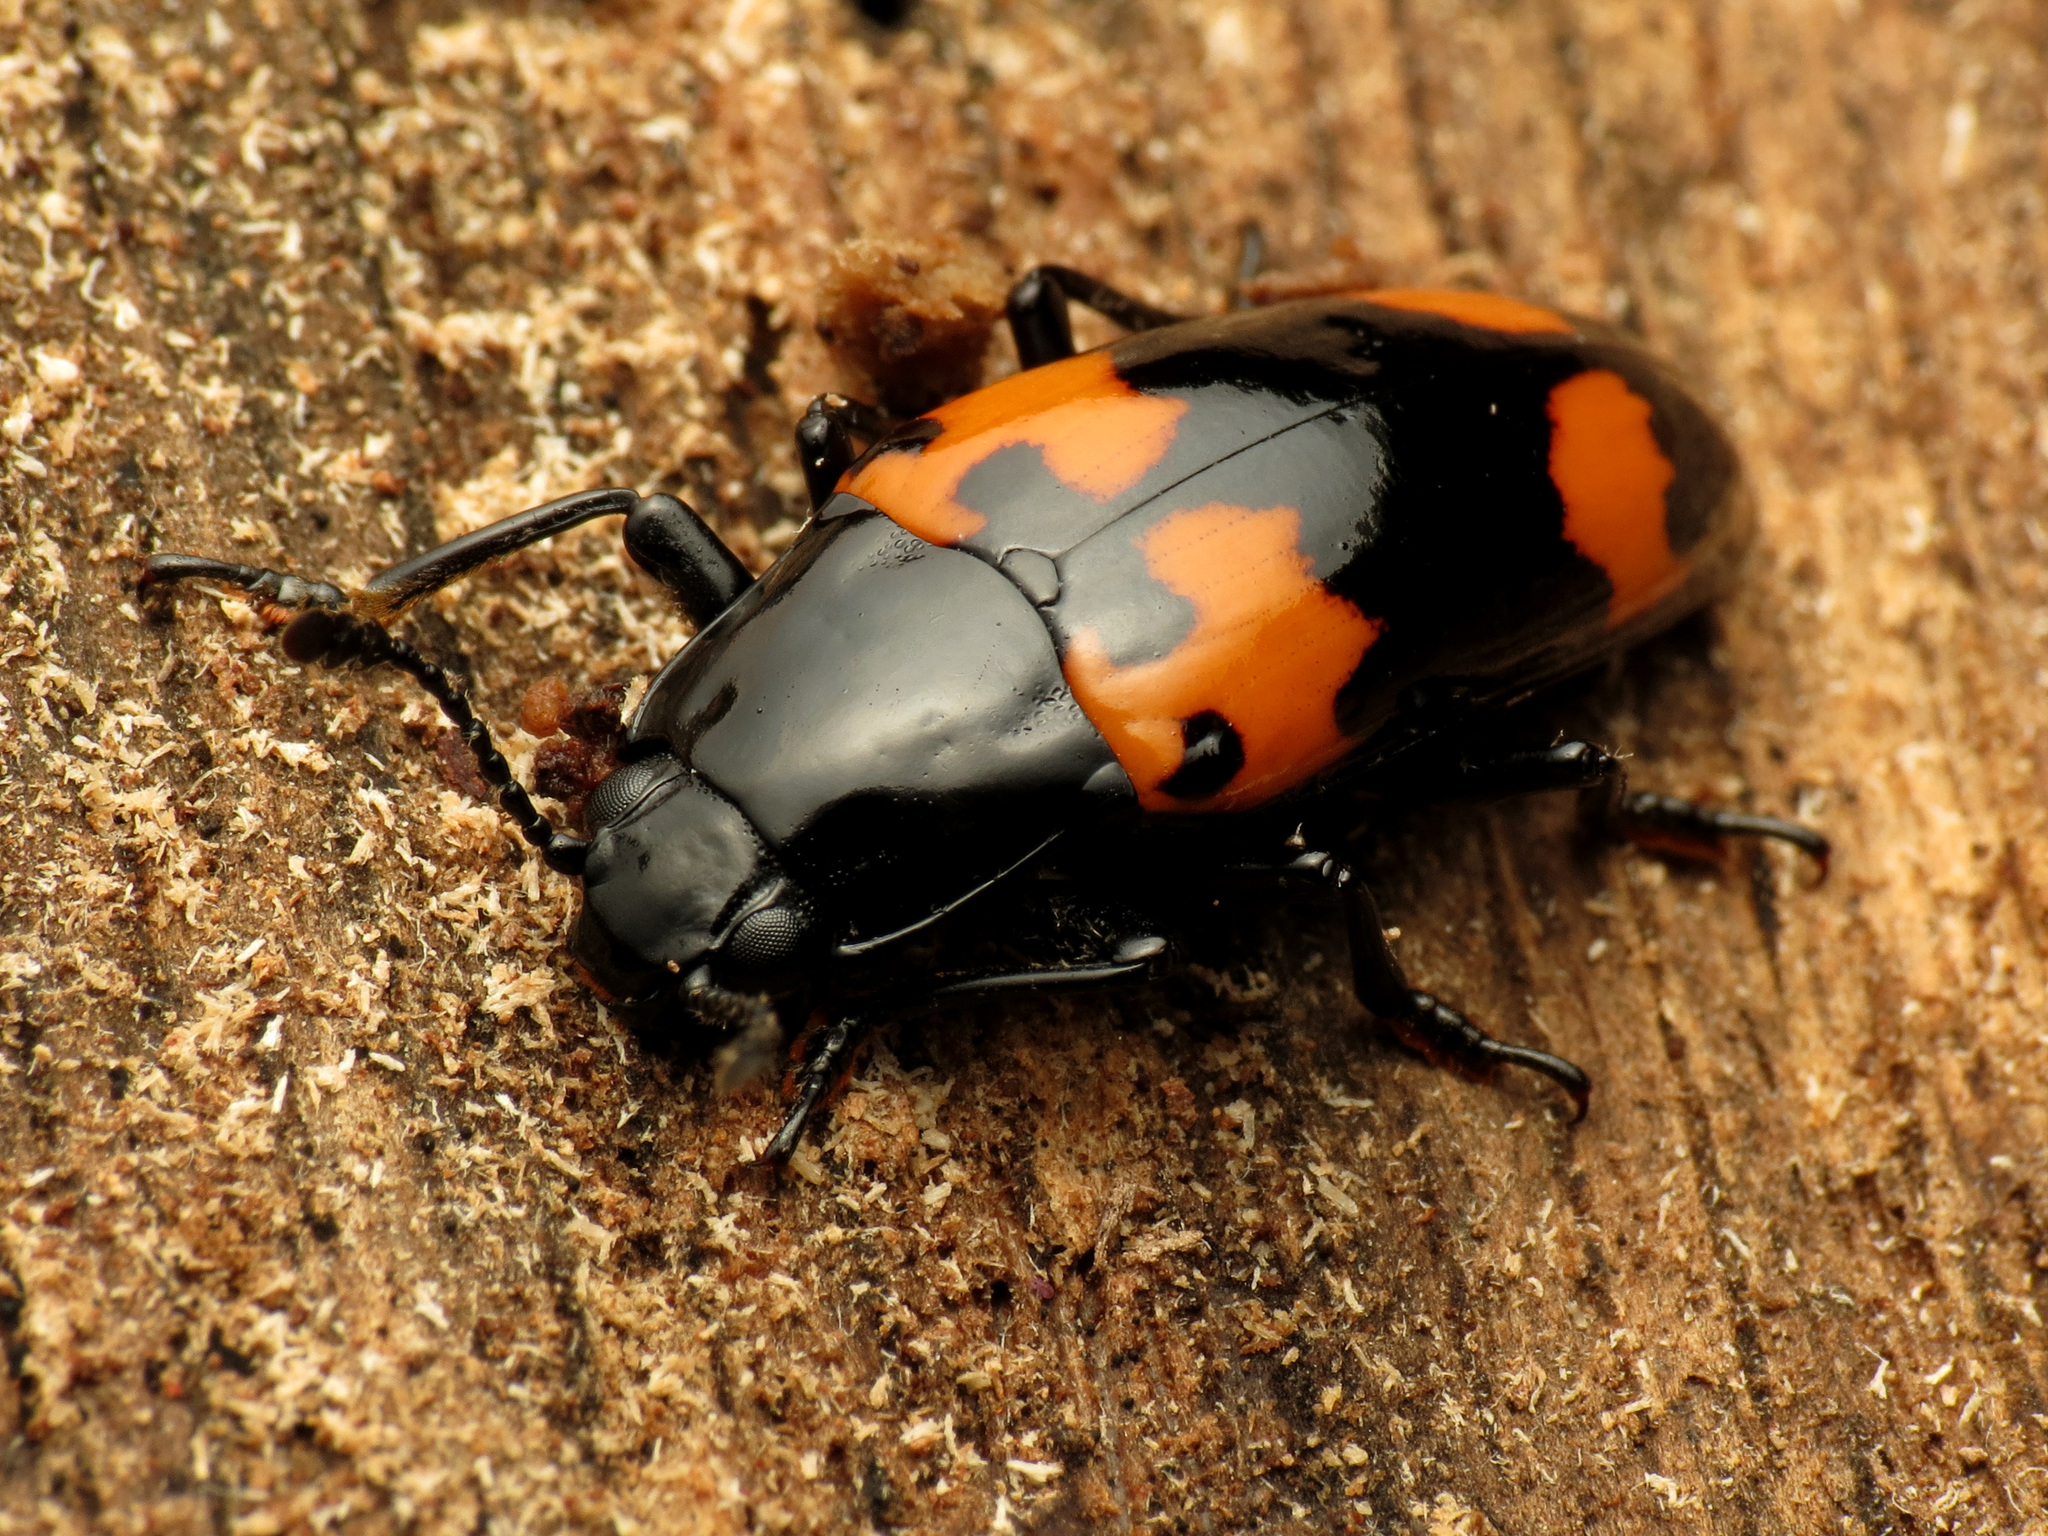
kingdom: Animalia
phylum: Arthropoda
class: Insecta
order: Coleoptera
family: Erotylidae
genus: Megalodacne
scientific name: Megalodacne heros
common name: Pleasing fungus beetle
